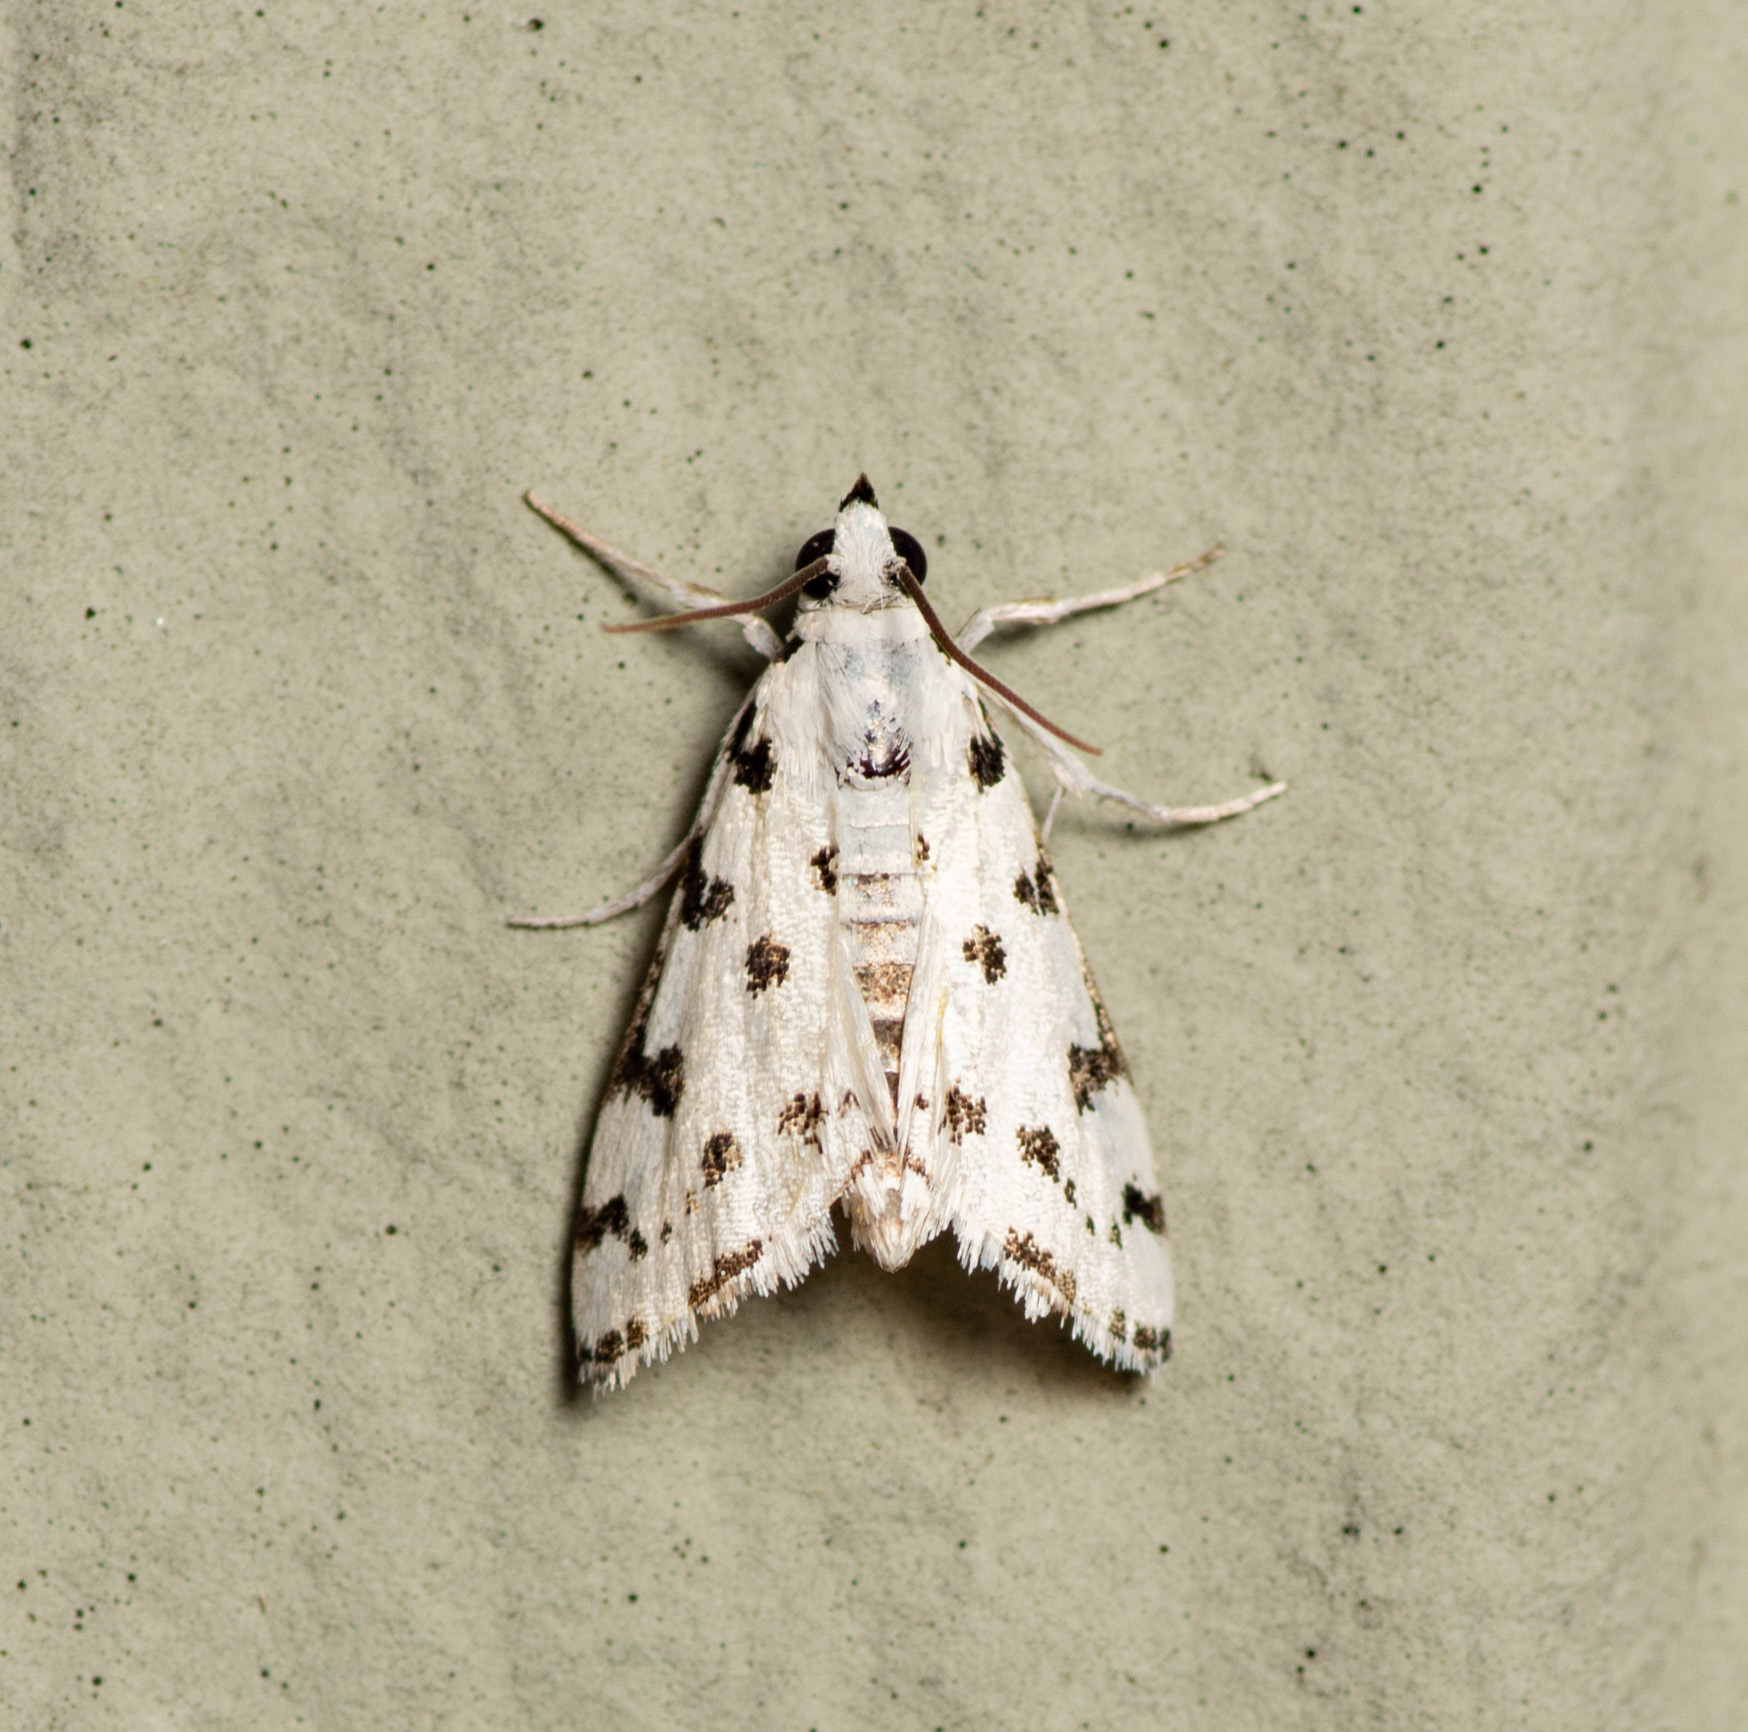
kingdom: Animalia
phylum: Arthropoda
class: Insecta
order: Lepidoptera
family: Crambidae
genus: Eustixia
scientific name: Eustixia pupula
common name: American cabbage pearl
